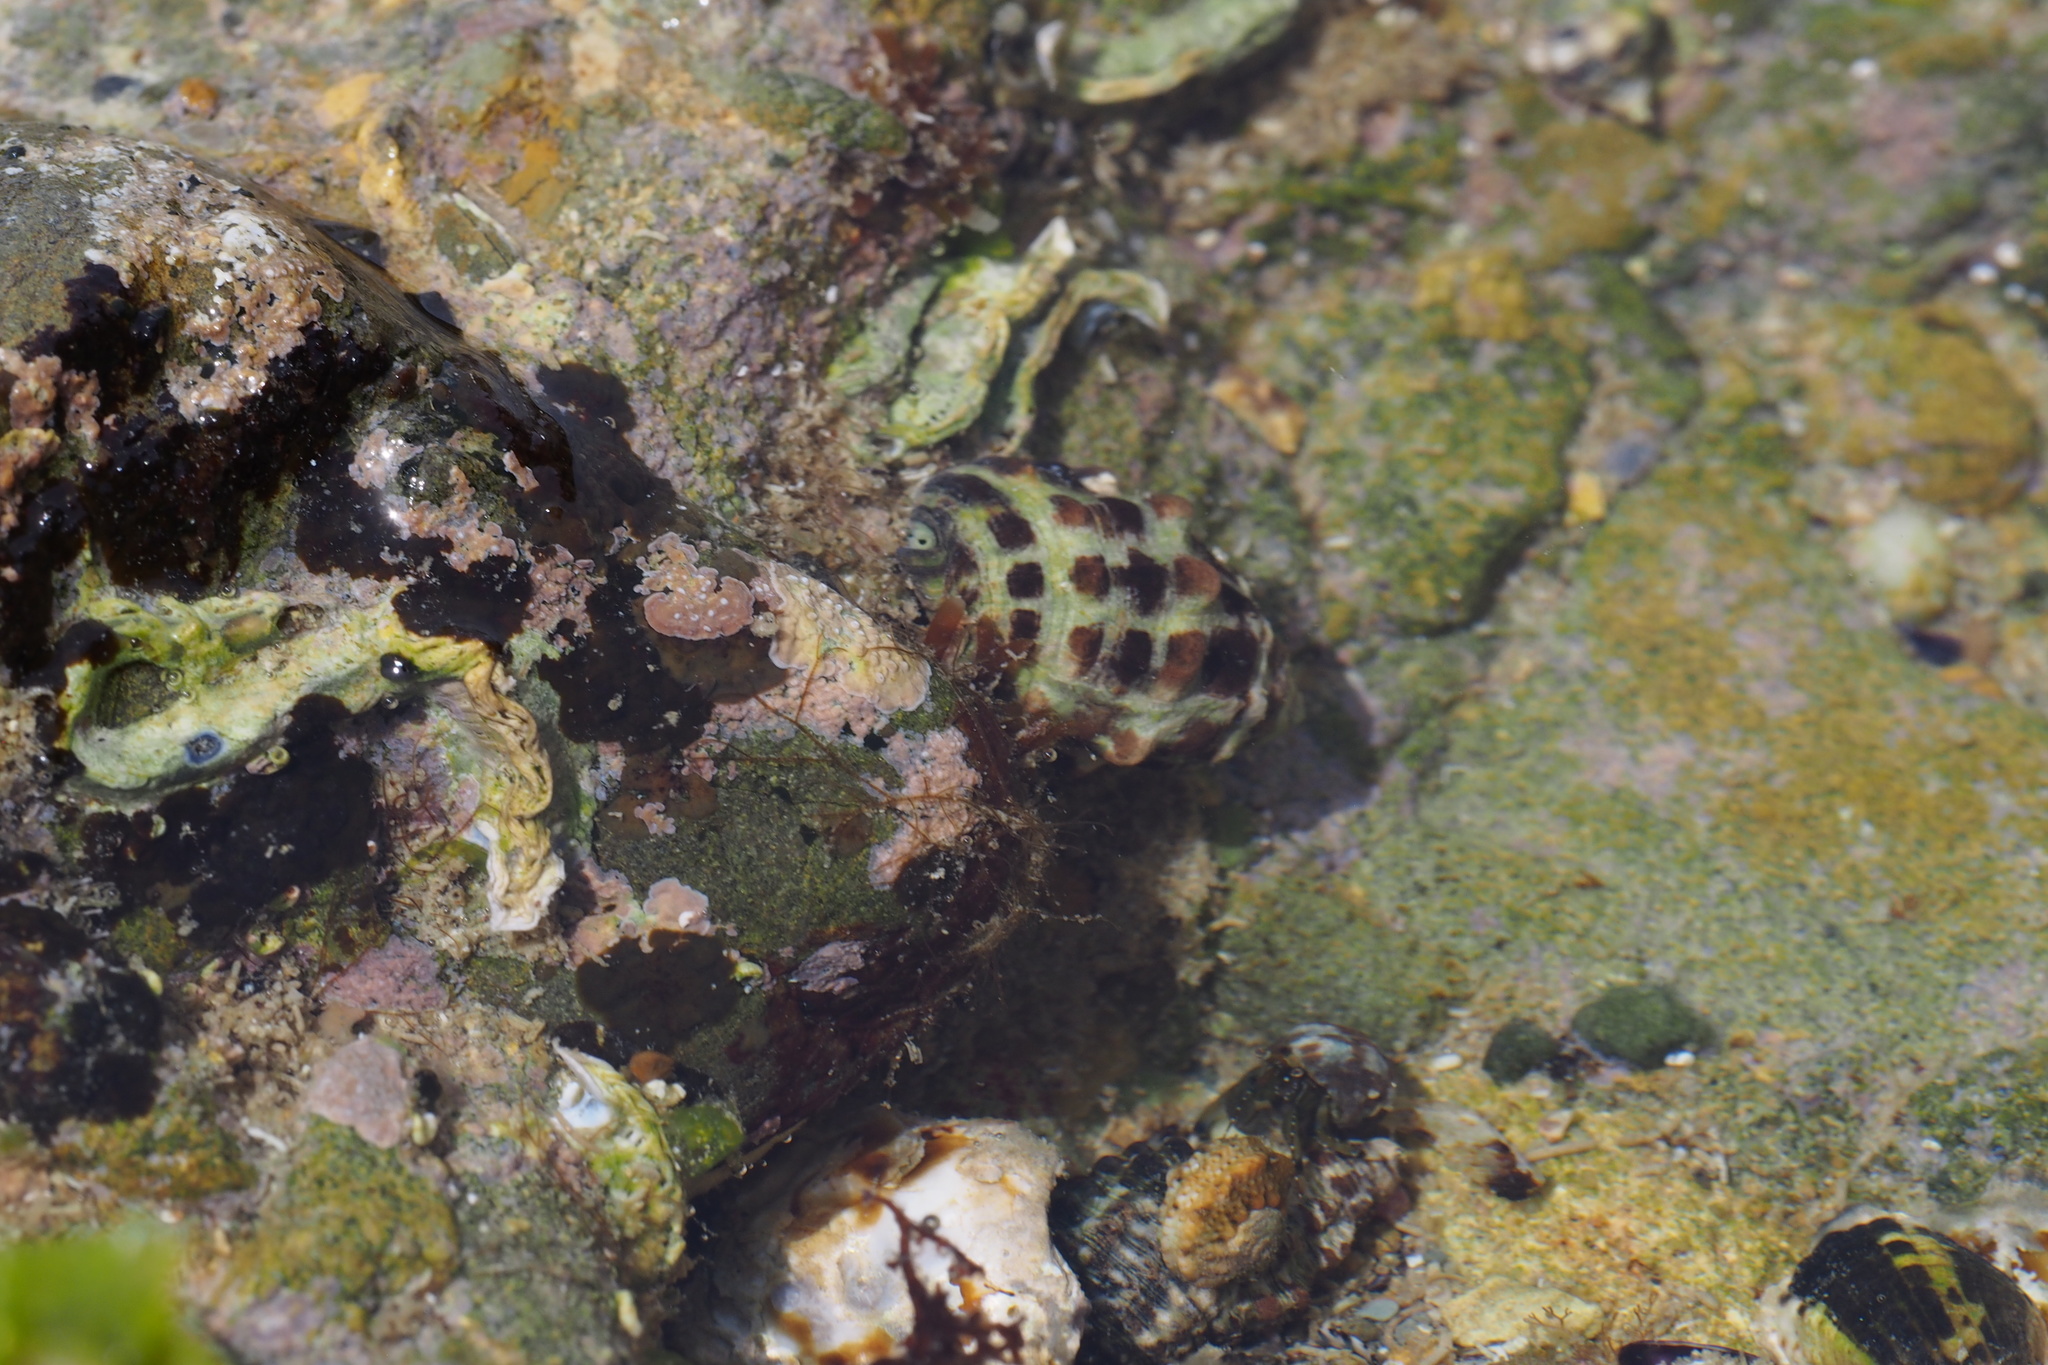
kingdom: Animalia
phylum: Mollusca
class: Gastropoda
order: Neogastropoda
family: Muricidae
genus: Tenguella
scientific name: Tenguella musiva
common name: Mosaic purpura
